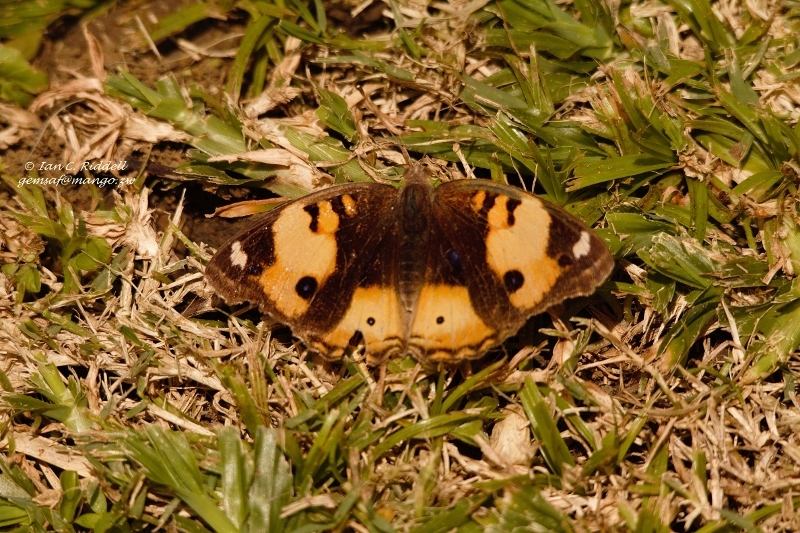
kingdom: Animalia
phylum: Arthropoda
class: Insecta
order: Lepidoptera
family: Nymphalidae
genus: Junonia
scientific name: Junonia hierta
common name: Yellow pansy
